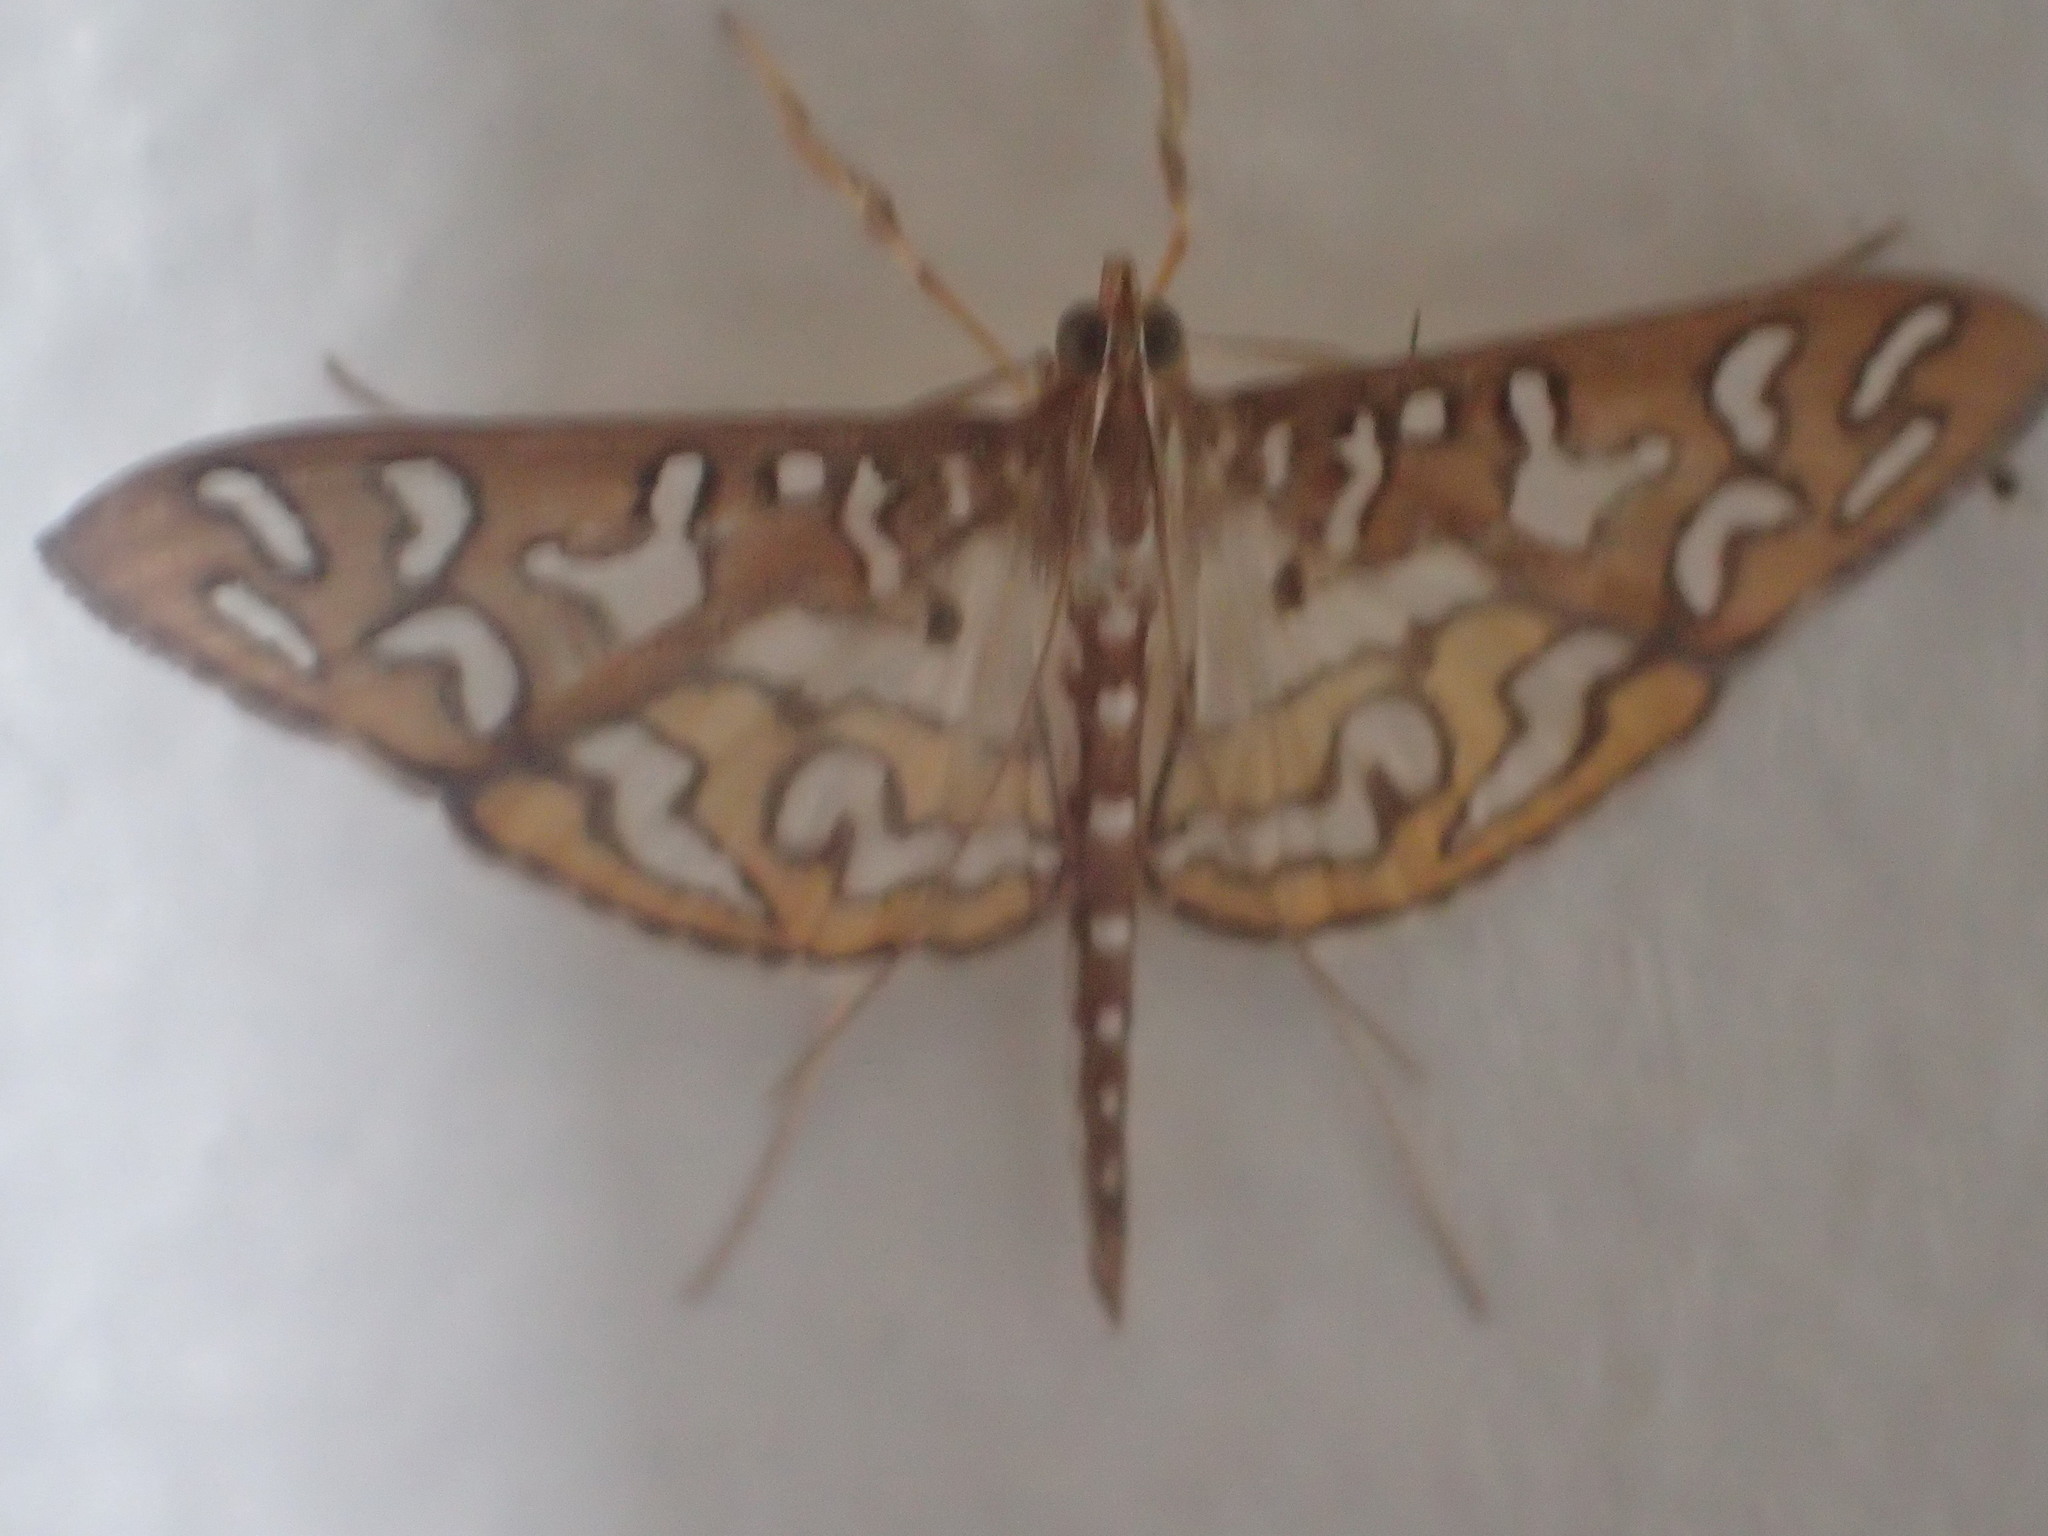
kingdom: Animalia
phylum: Arthropoda
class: Insecta
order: Lepidoptera
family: Crambidae
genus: Nausinoe
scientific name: Nausinoe perspectata
